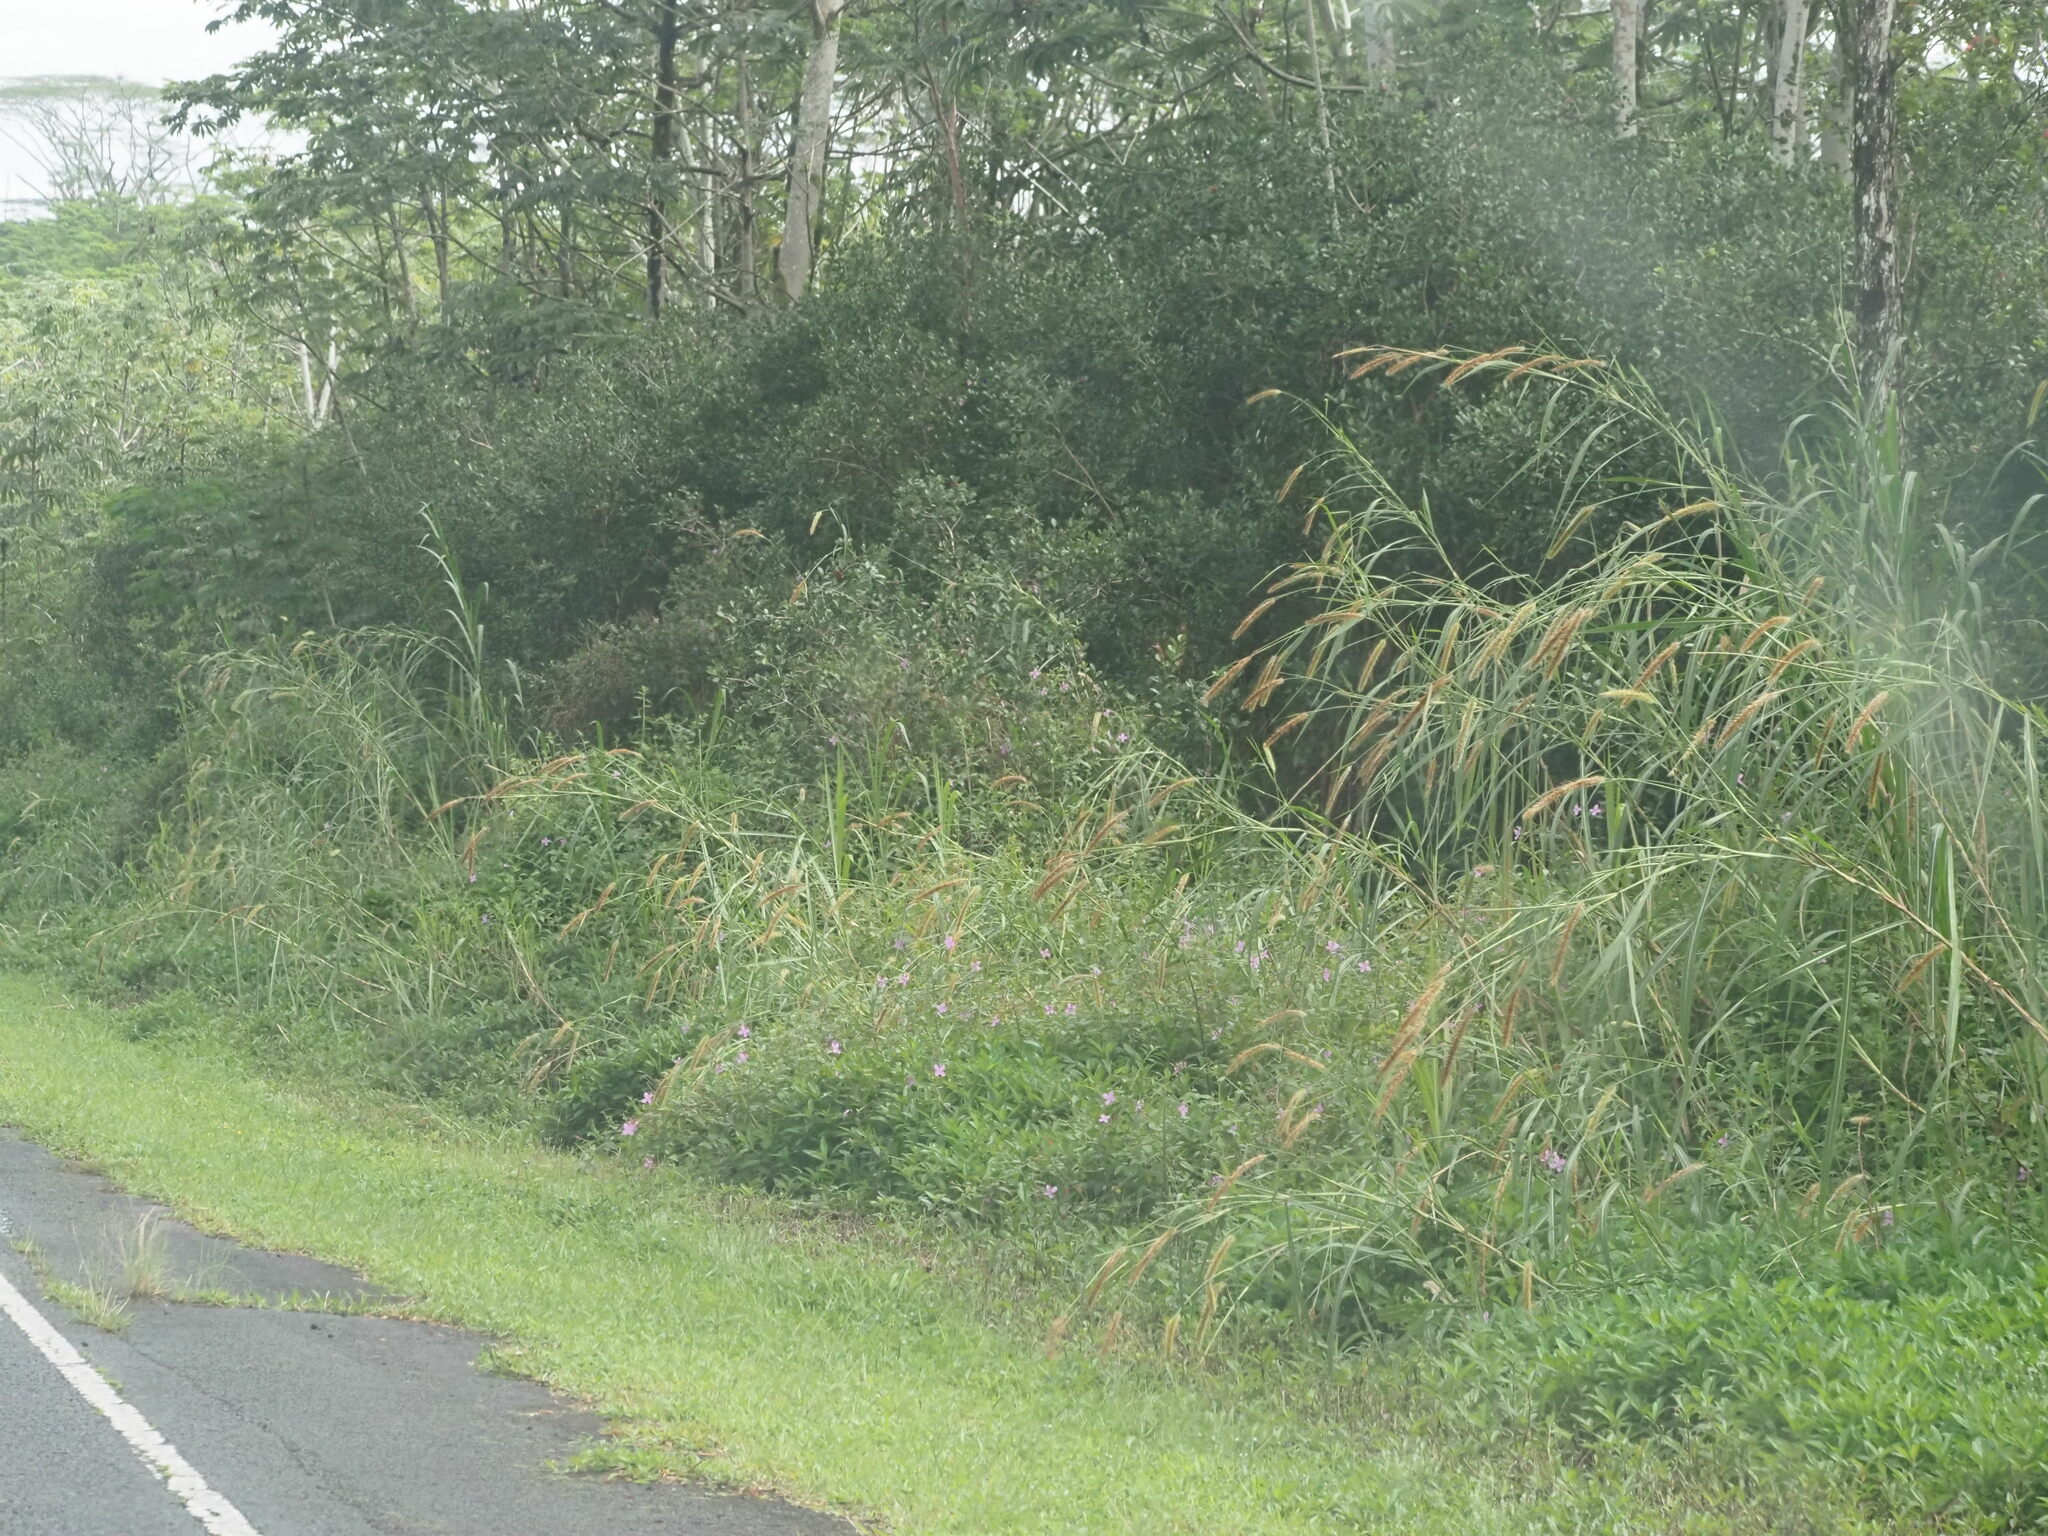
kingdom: Plantae
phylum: Tracheophyta
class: Liliopsida
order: Poales
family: Poaceae
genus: Cenchrus
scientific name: Cenchrus purpureus
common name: Elephant grass
